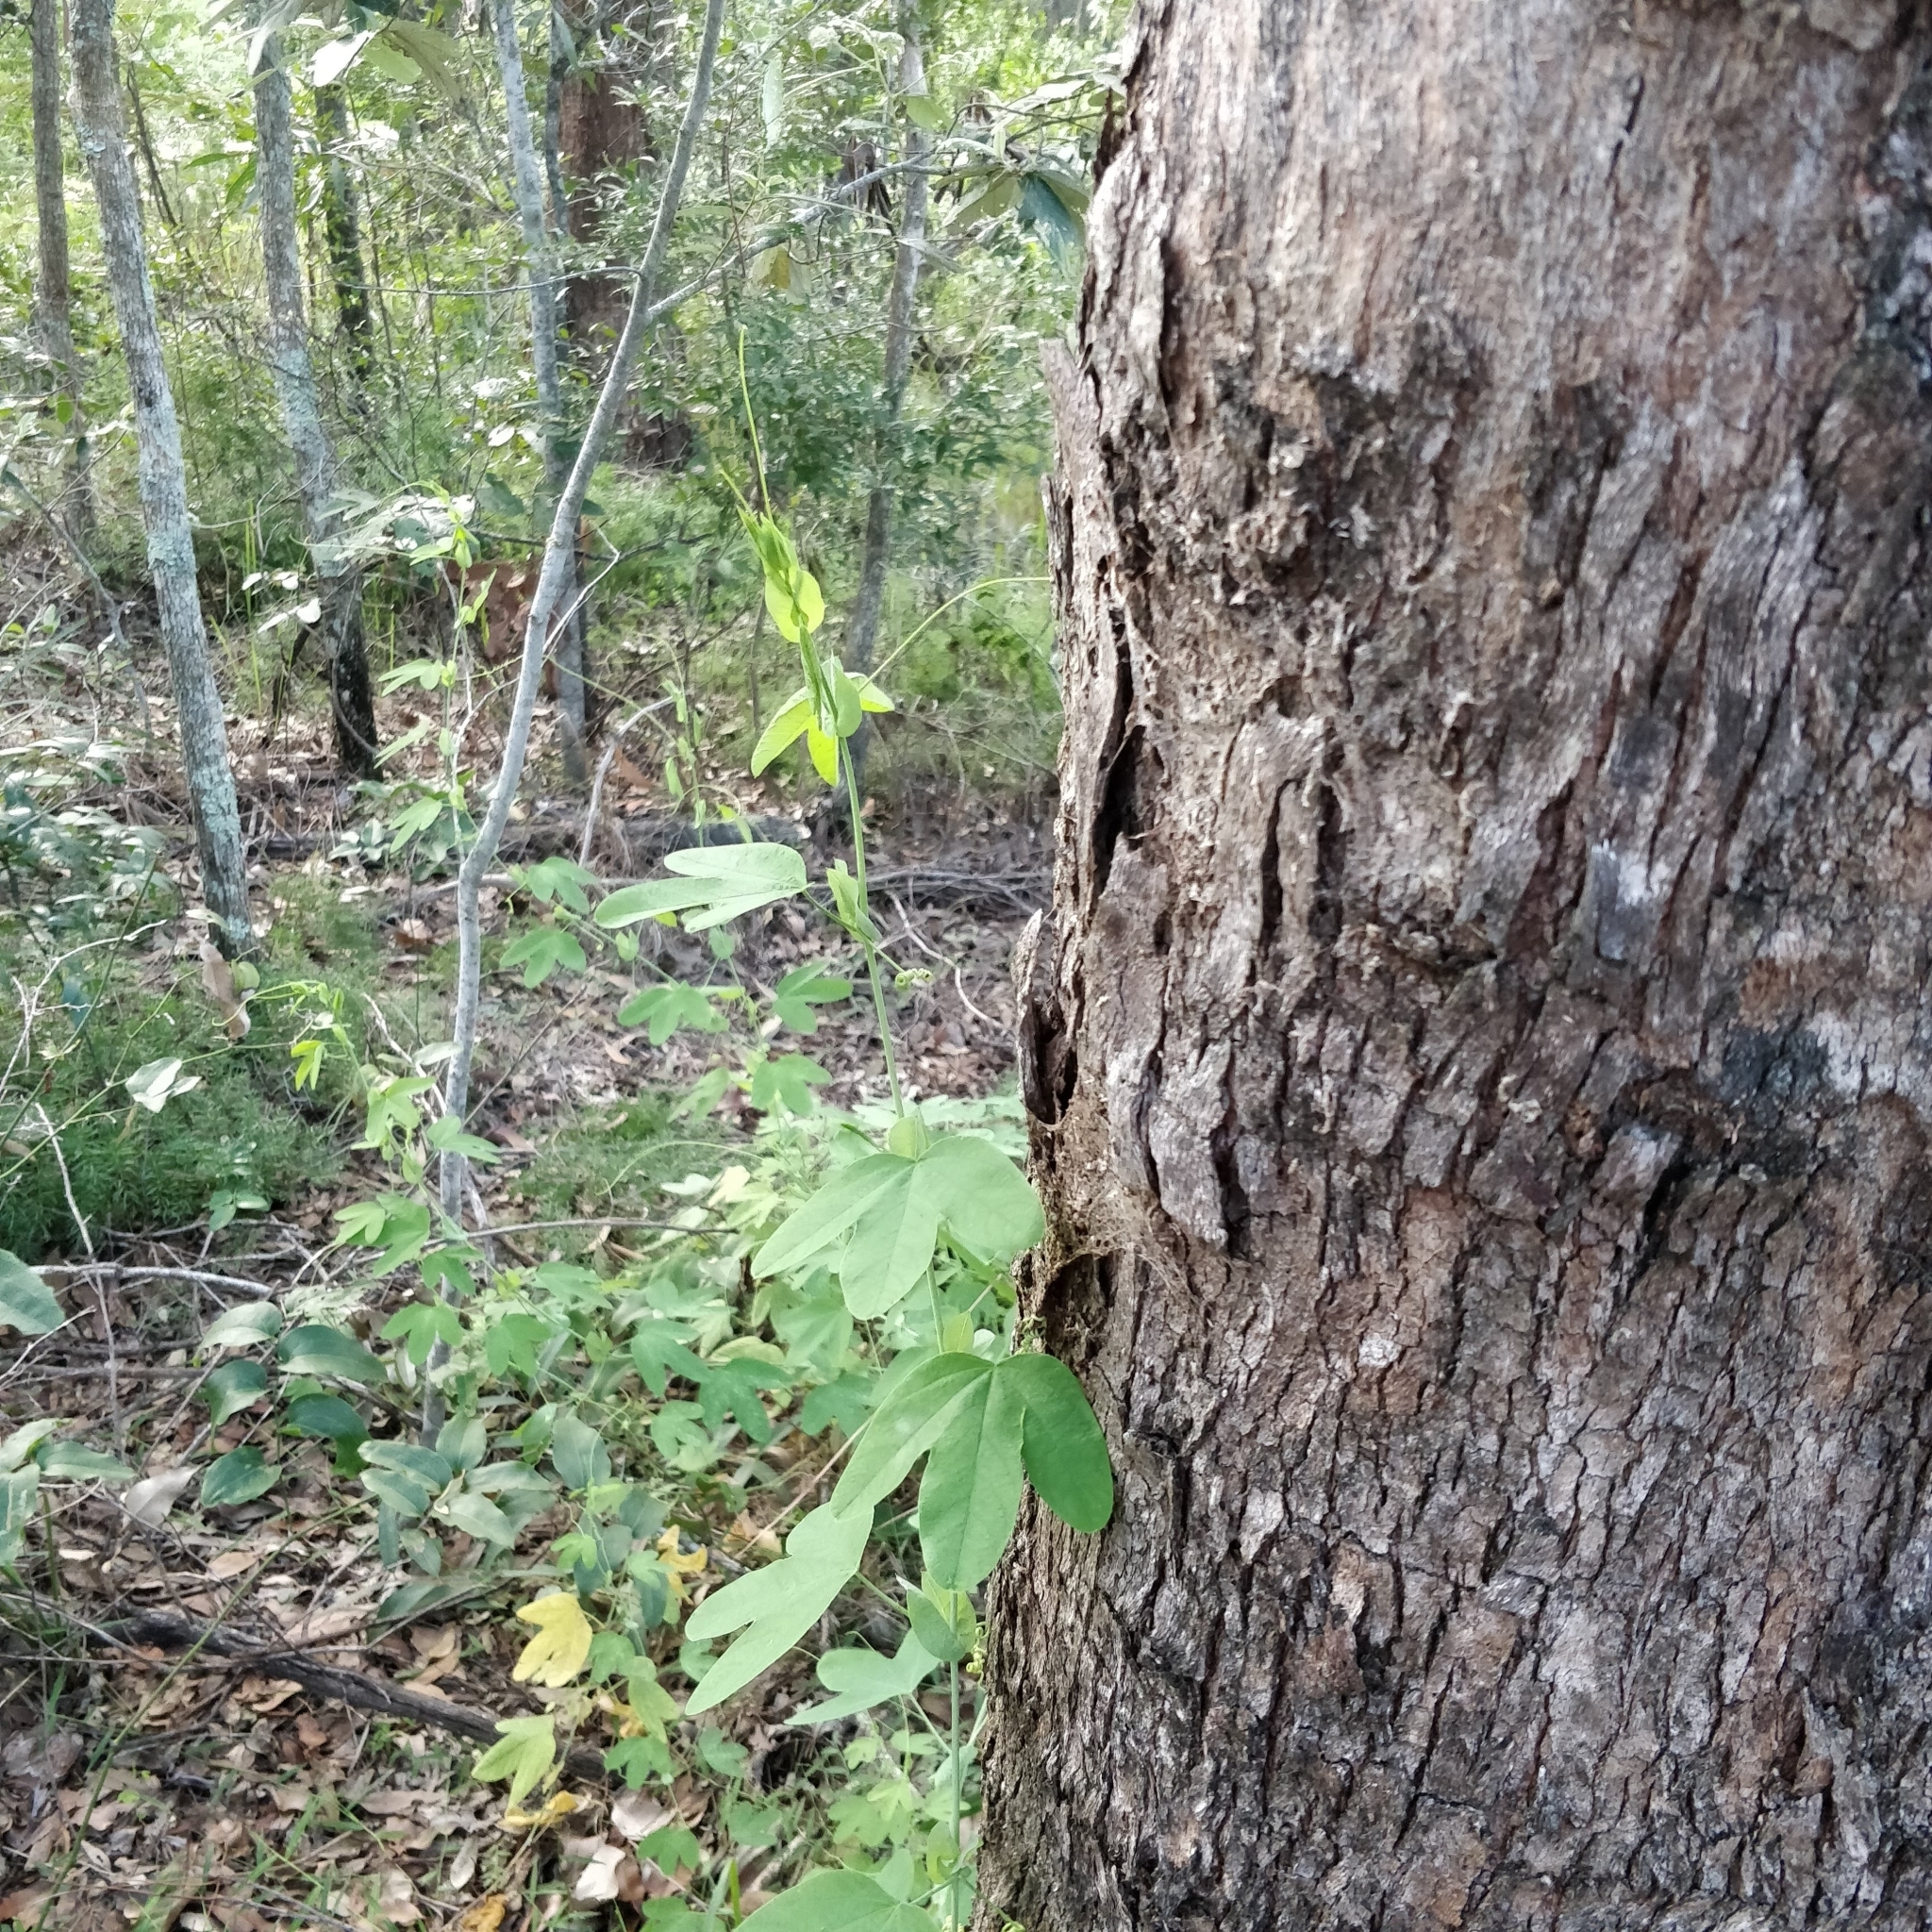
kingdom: Plantae
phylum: Tracheophyta
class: Magnoliopsida
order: Malpighiales
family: Passifloraceae
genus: Passiflora
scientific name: Passiflora subpeltata
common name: White passionflower
